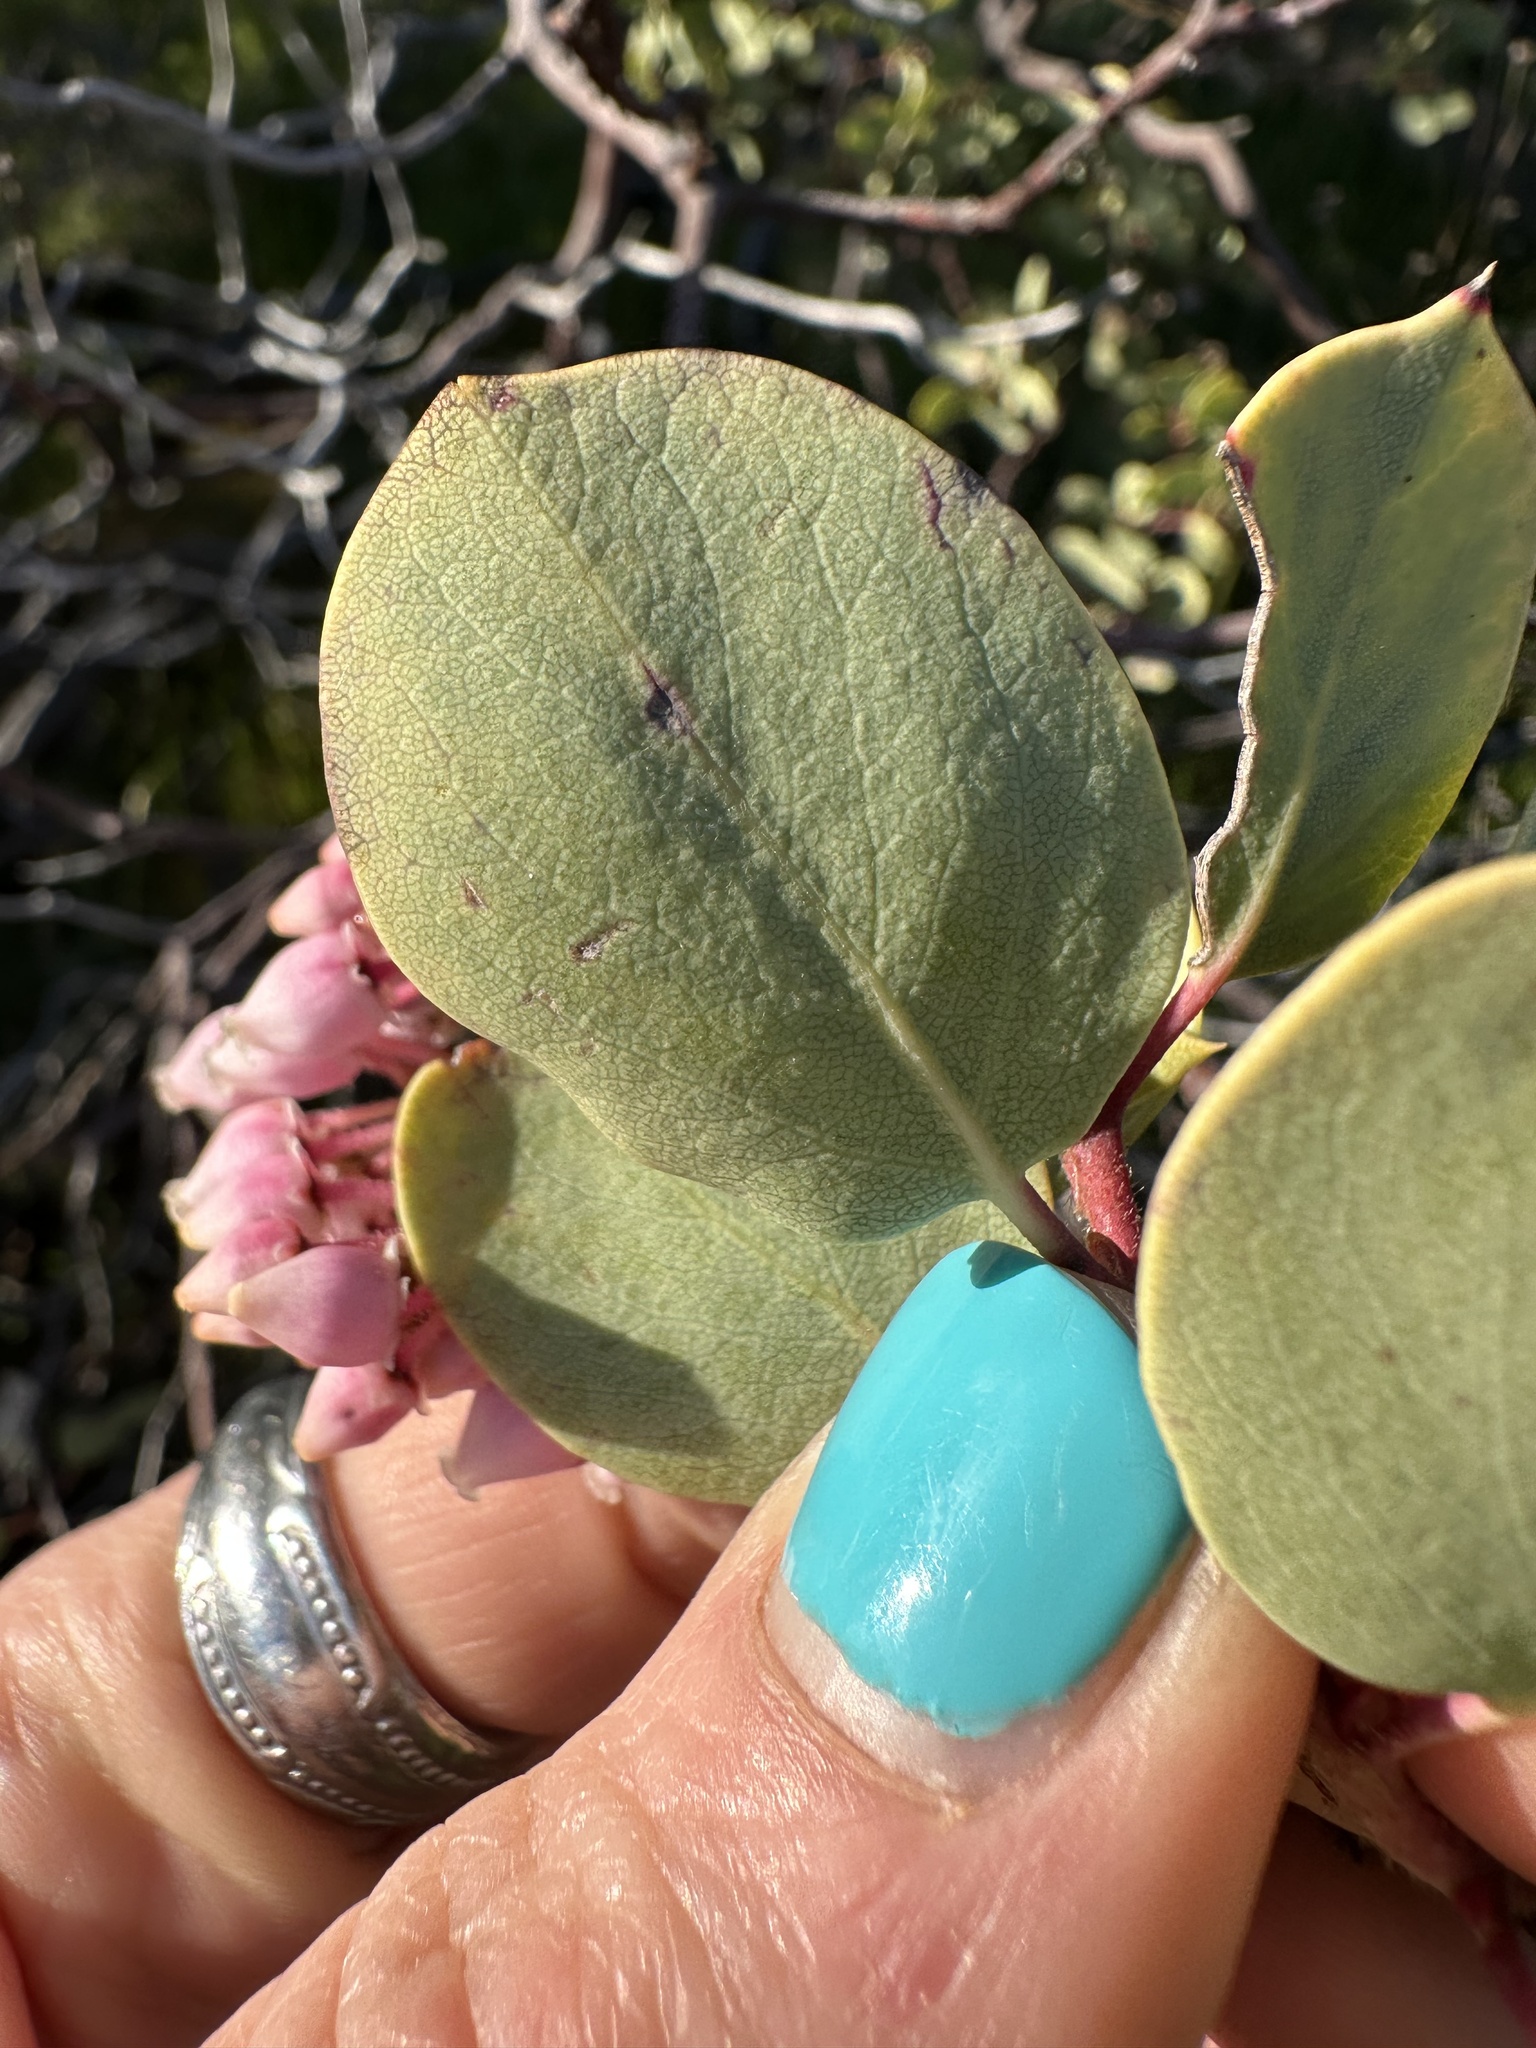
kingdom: Plantae
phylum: Tracheophyta
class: Magnoliopsida
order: Ericales
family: Ericaceae
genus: Arctostaphylos
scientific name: Arctostaphylos viscida
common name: White-leaf manzanita
